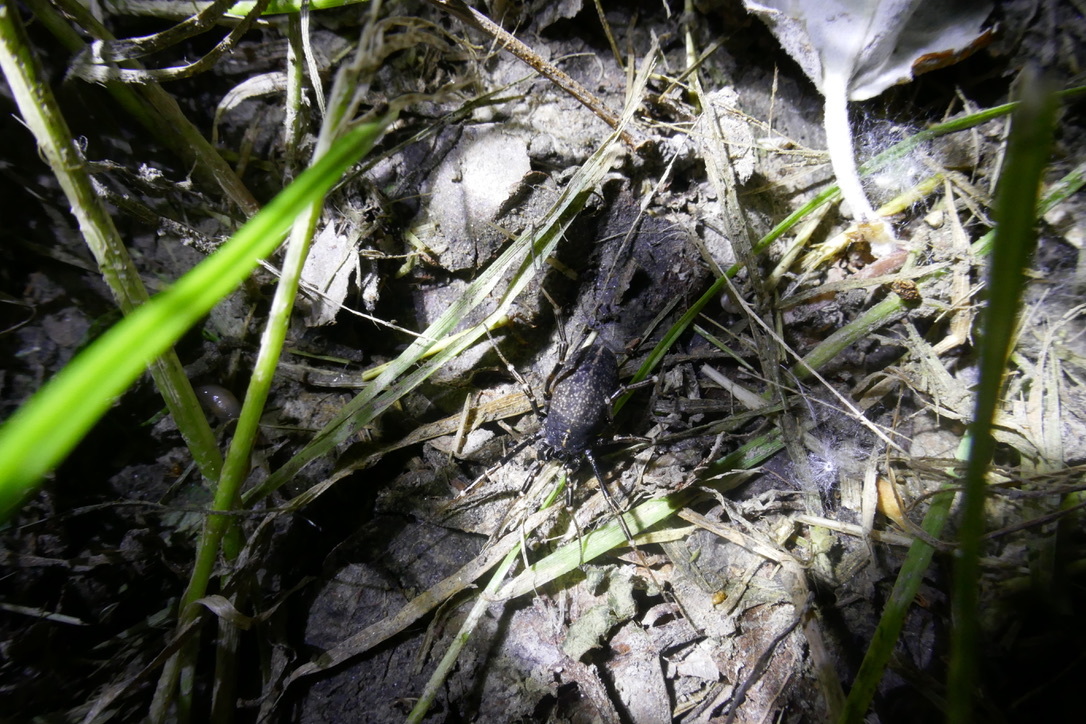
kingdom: Animalia
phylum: Arthropoda
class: Arachnida
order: Opiliones
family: Phalangiidae
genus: Egaenus
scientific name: Egaenus convexus
